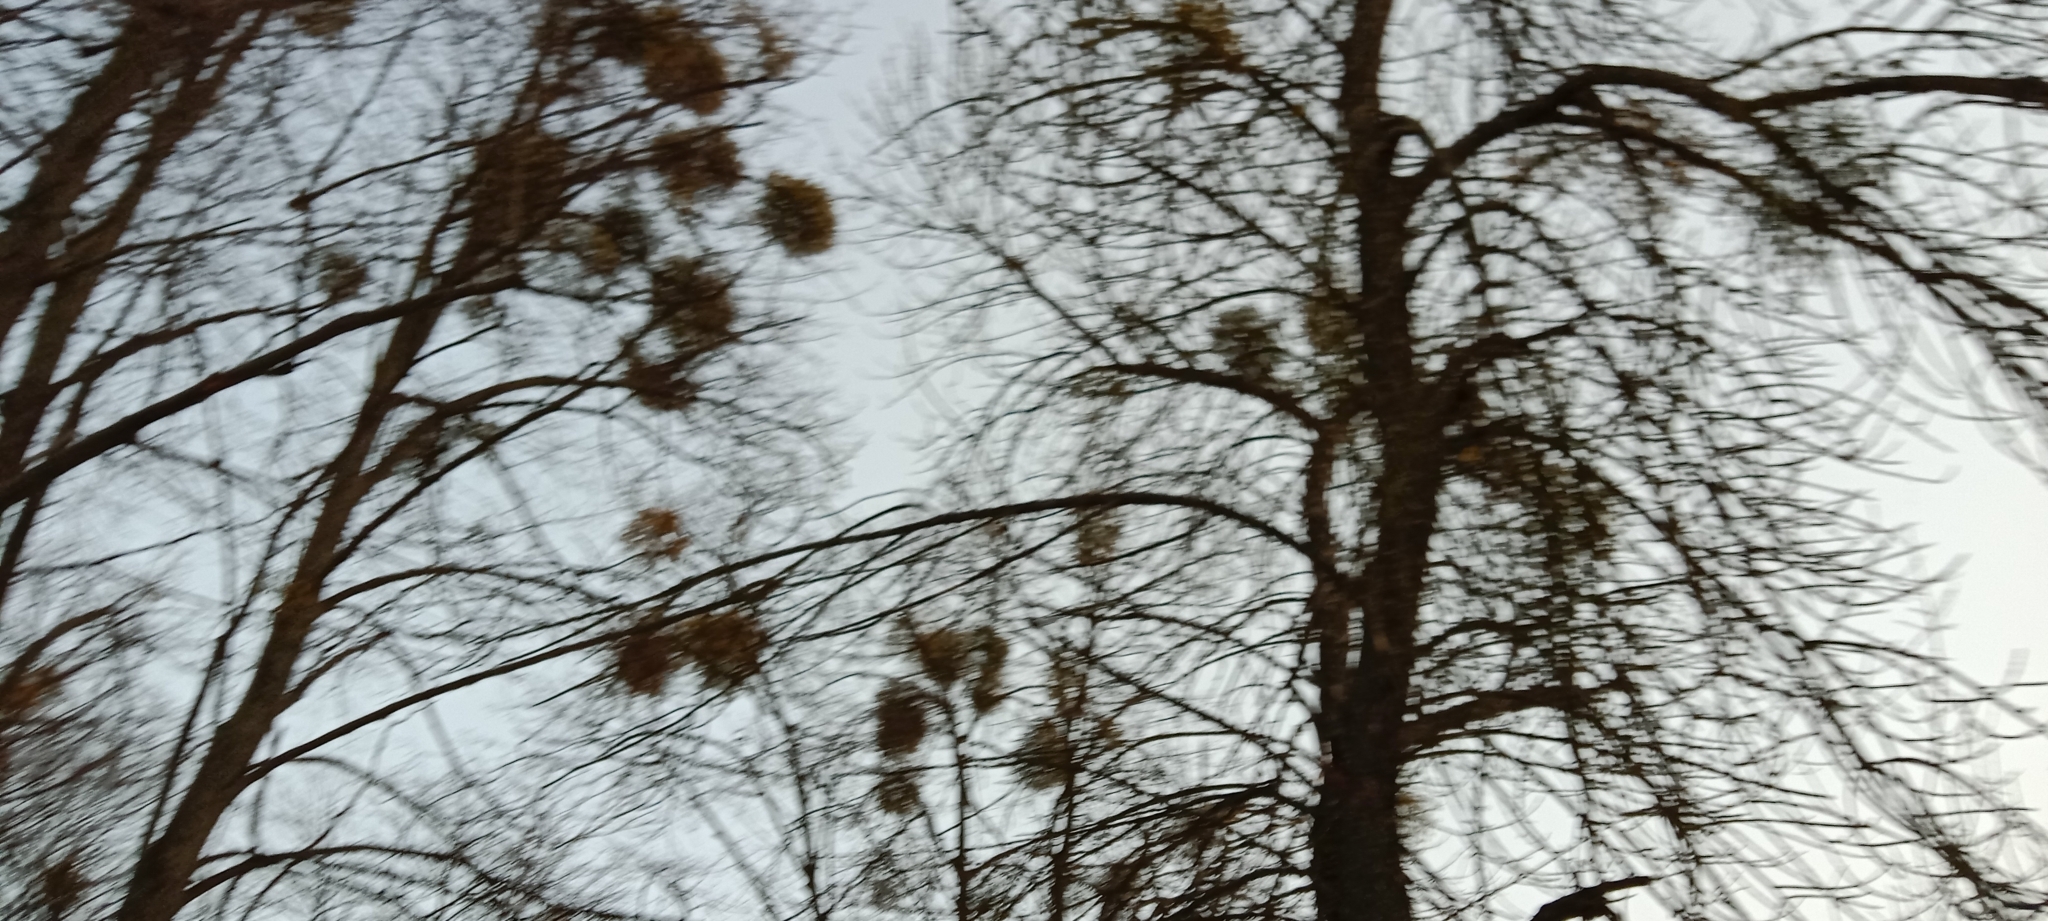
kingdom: Plantae
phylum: Tracheophyta
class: Magnoliopsida
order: Santalales
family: Viscaceae
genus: Viscum
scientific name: Viscum album
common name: Mistletoe
